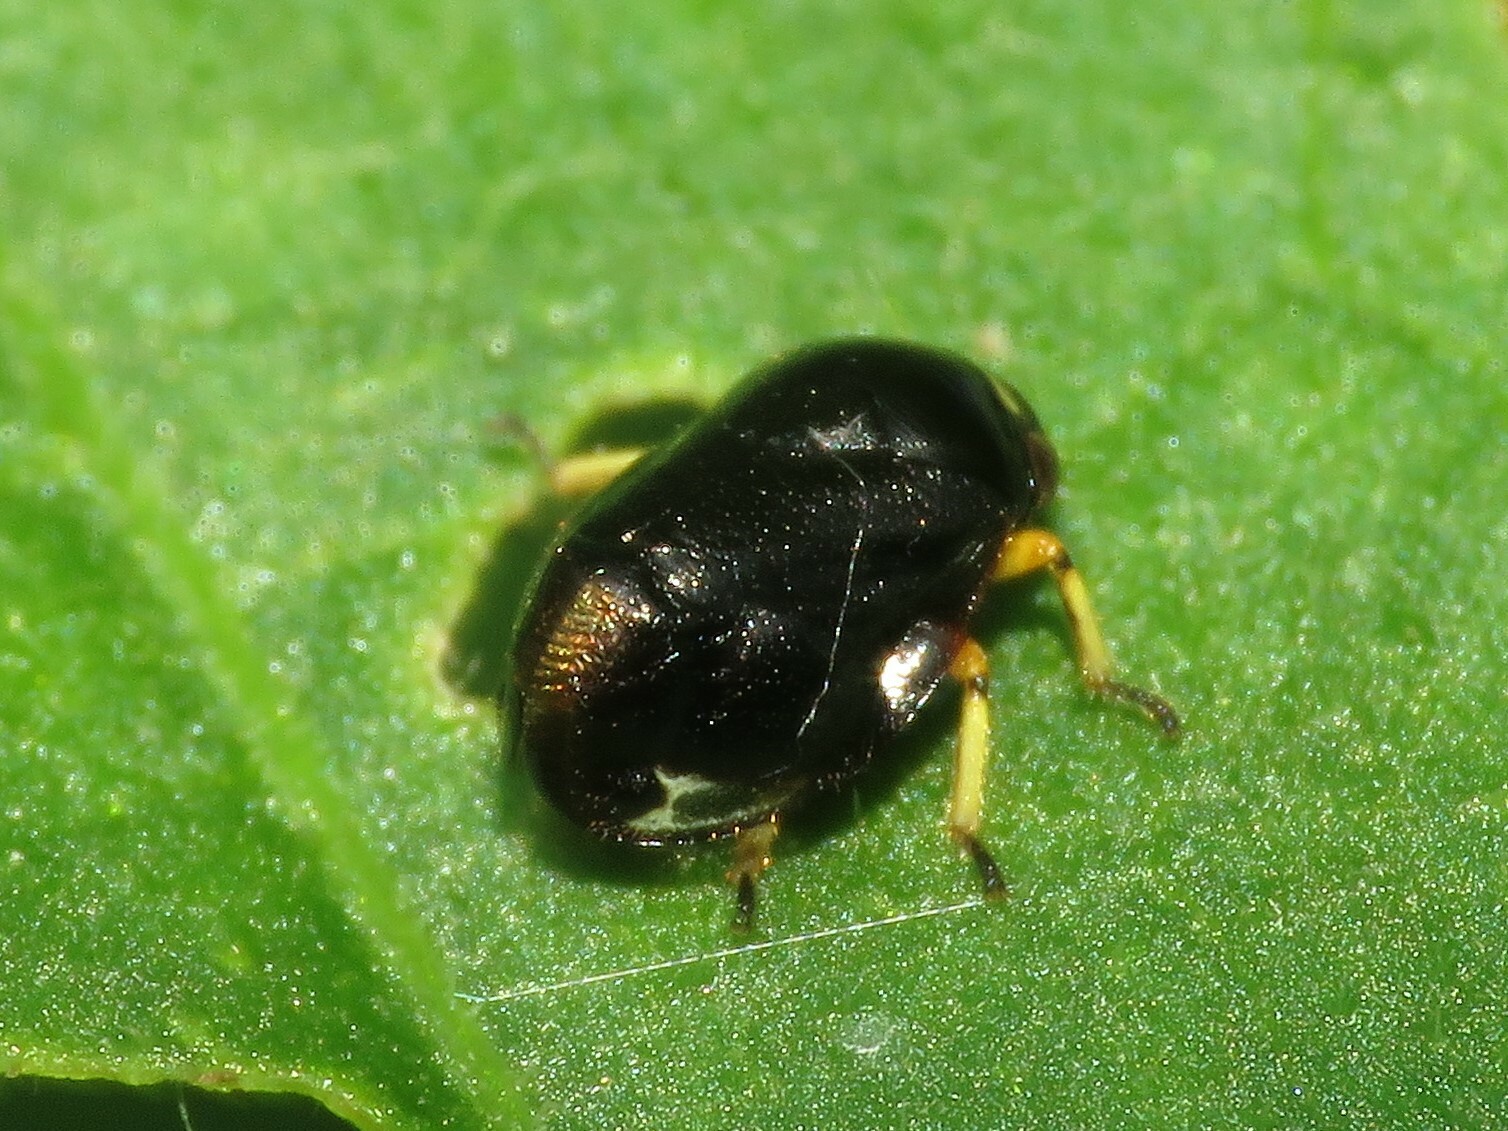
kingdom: Animalia
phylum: Arthropoda
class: Insecta
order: Hemiptera
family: Clastopteridae
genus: Clastoptera
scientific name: Clastoptera testacea
